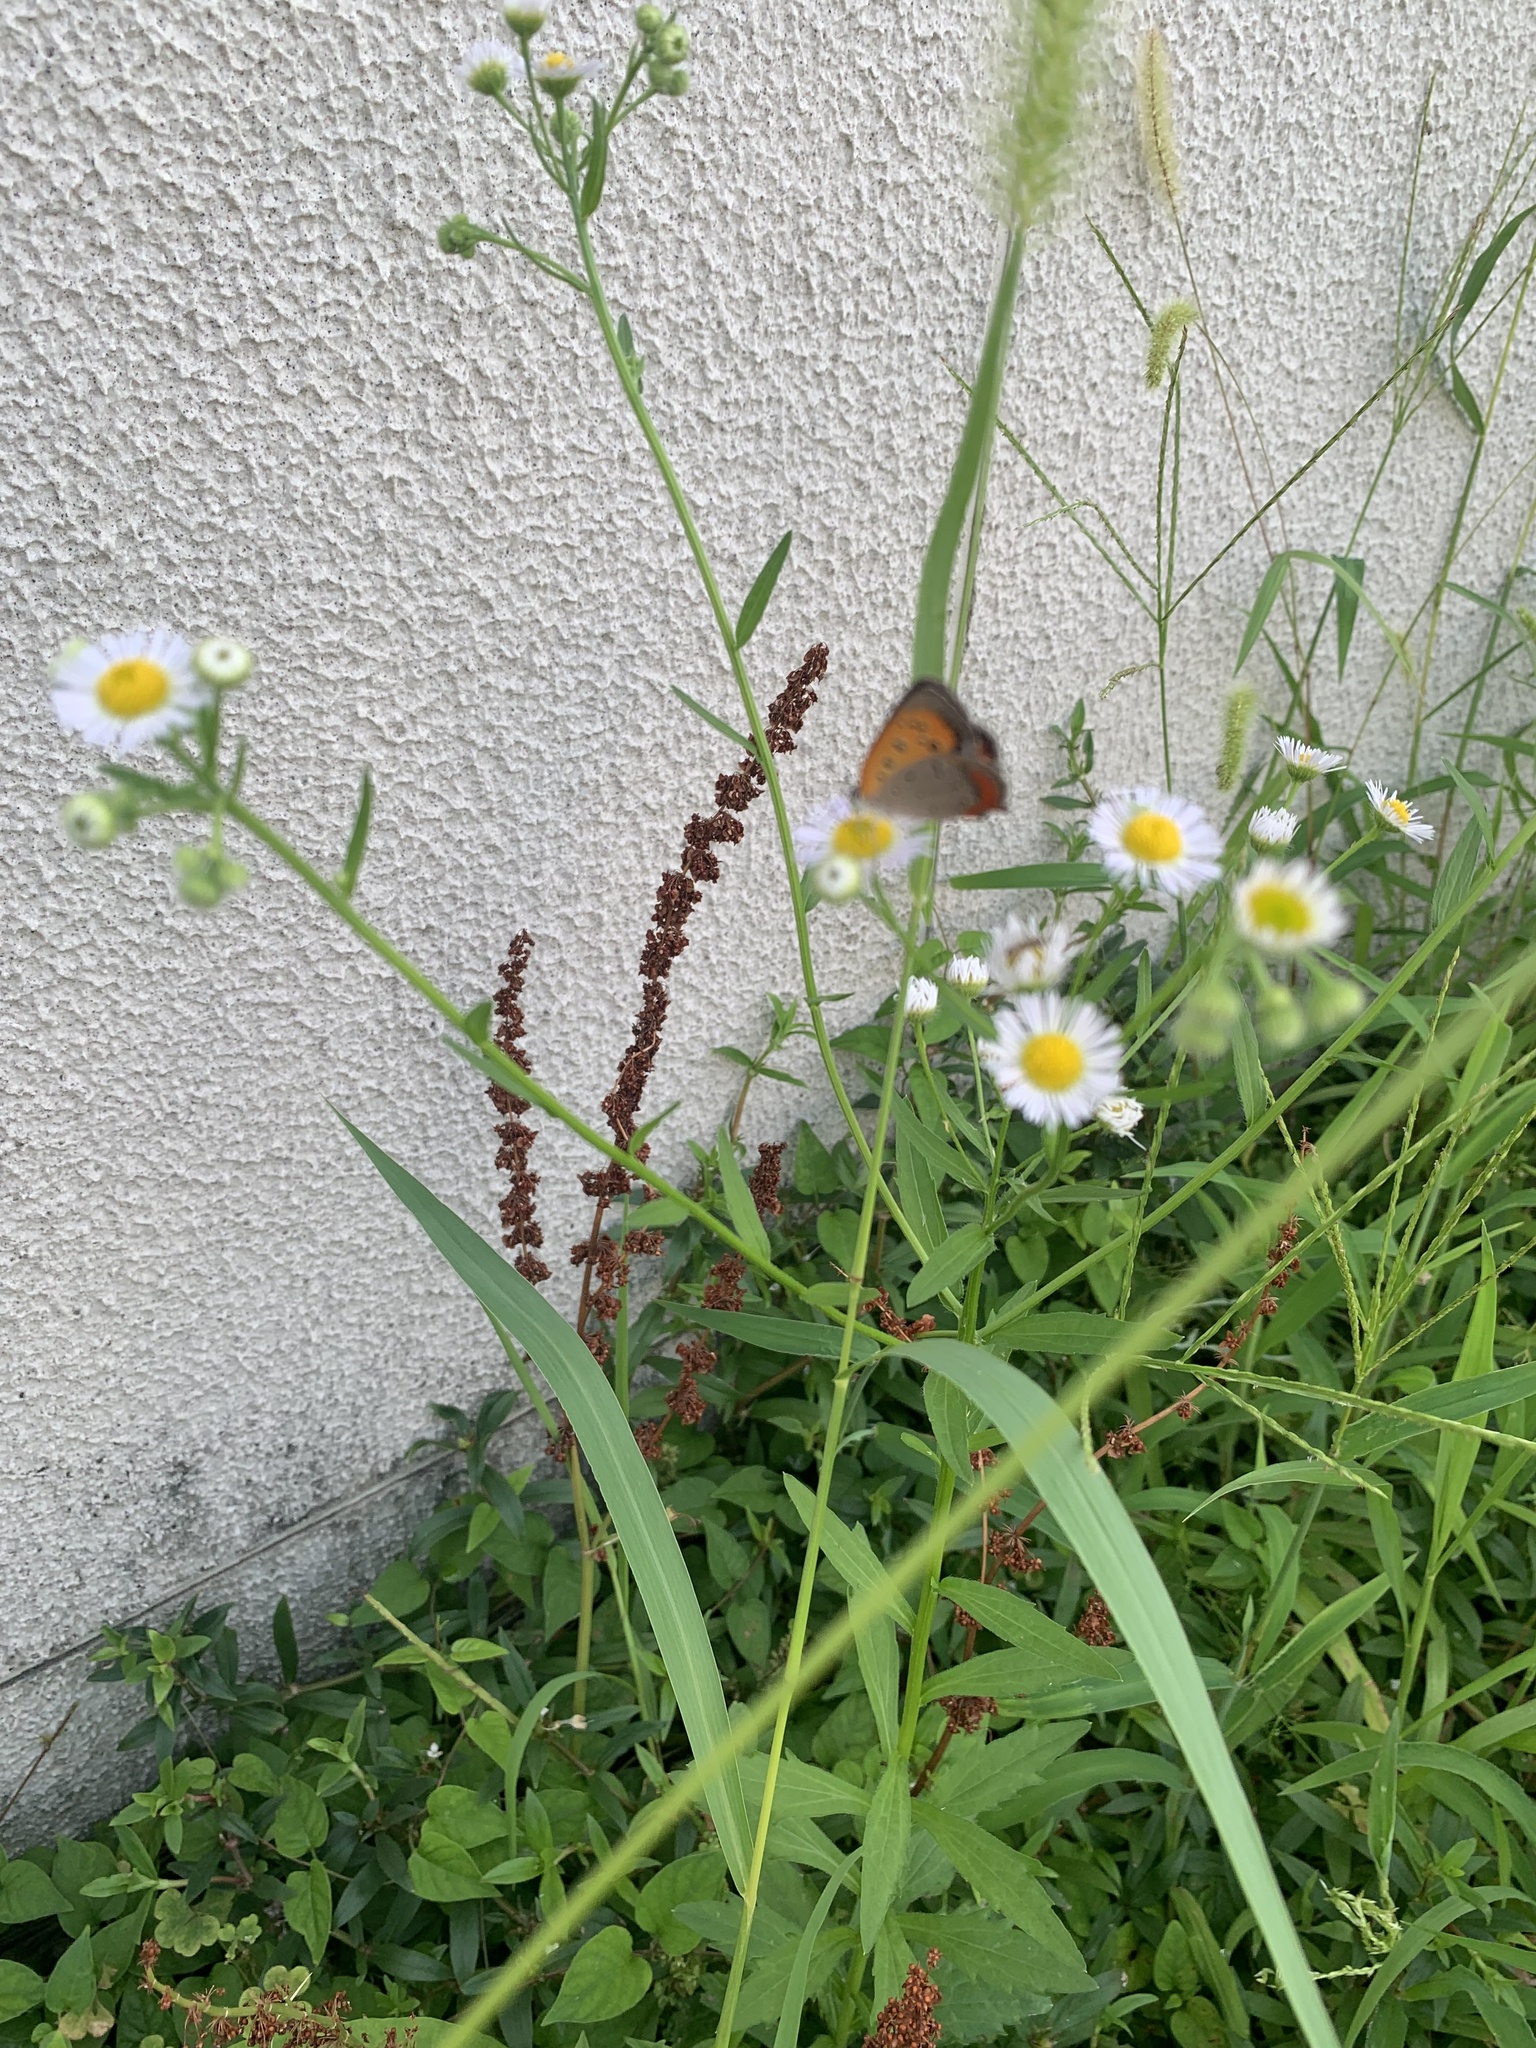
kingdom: Animalia
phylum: Arthropoda
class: Insecta
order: Lepidoptera
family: Lycaenidae
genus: Lycaena
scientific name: Lycaena phlaeas
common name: Small copper
